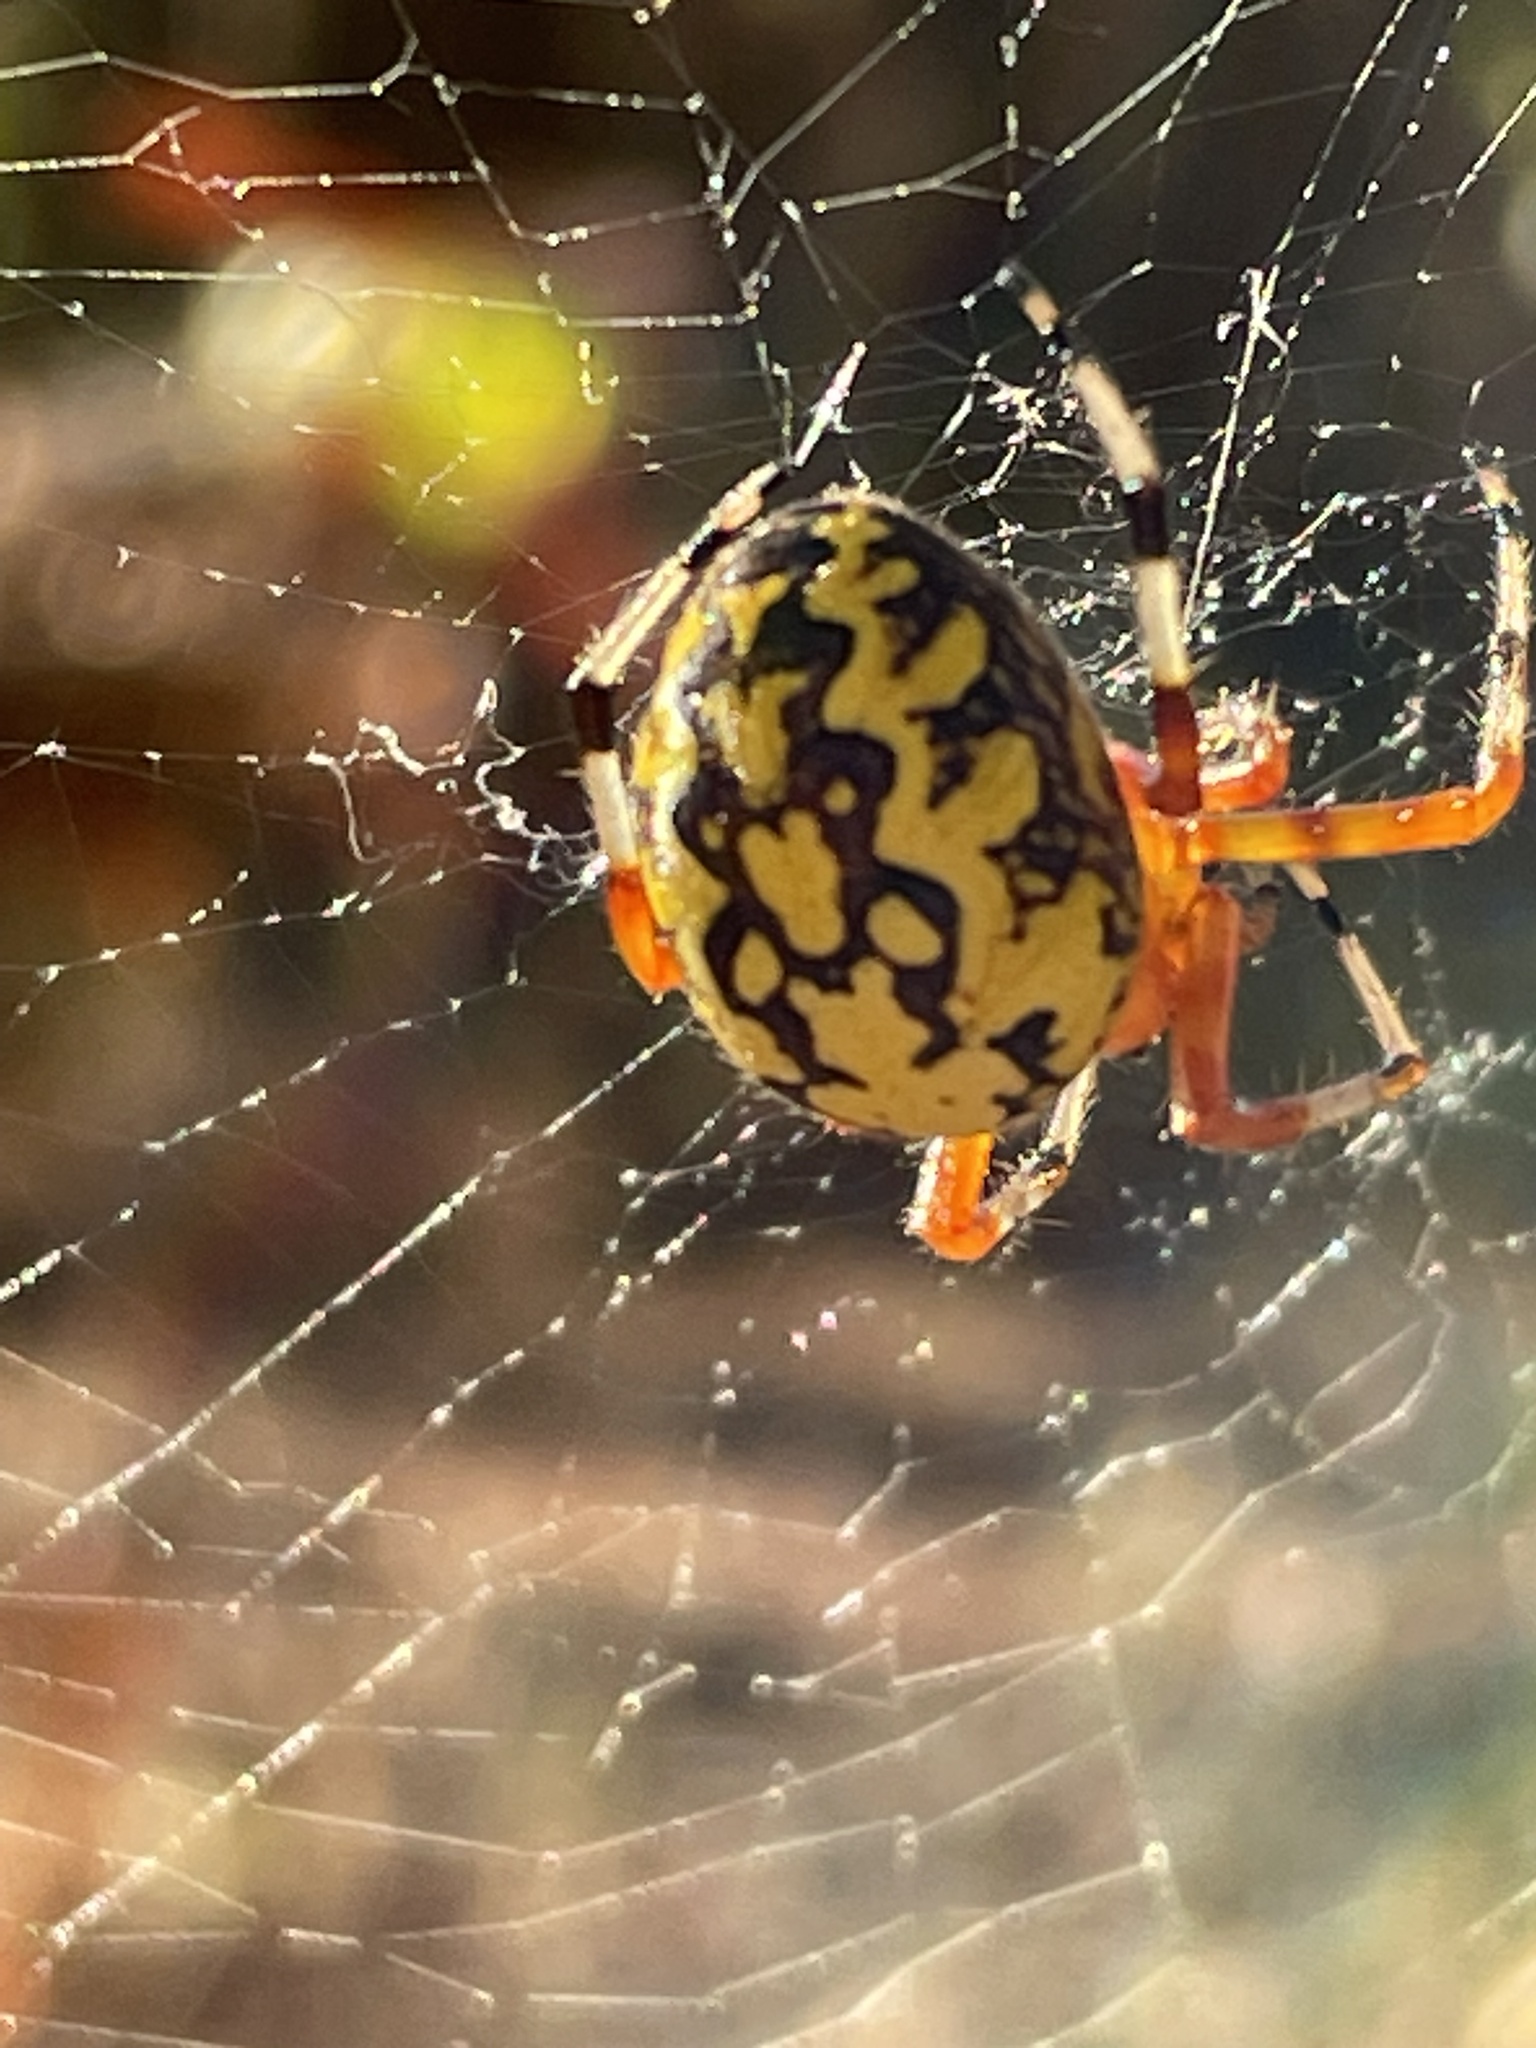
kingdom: Animalia
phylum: Arthropoda
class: Arachnida
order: Araneae
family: Araneidae
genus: Araneus
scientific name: Araneus marmoreus
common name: Marbled orbweaver
